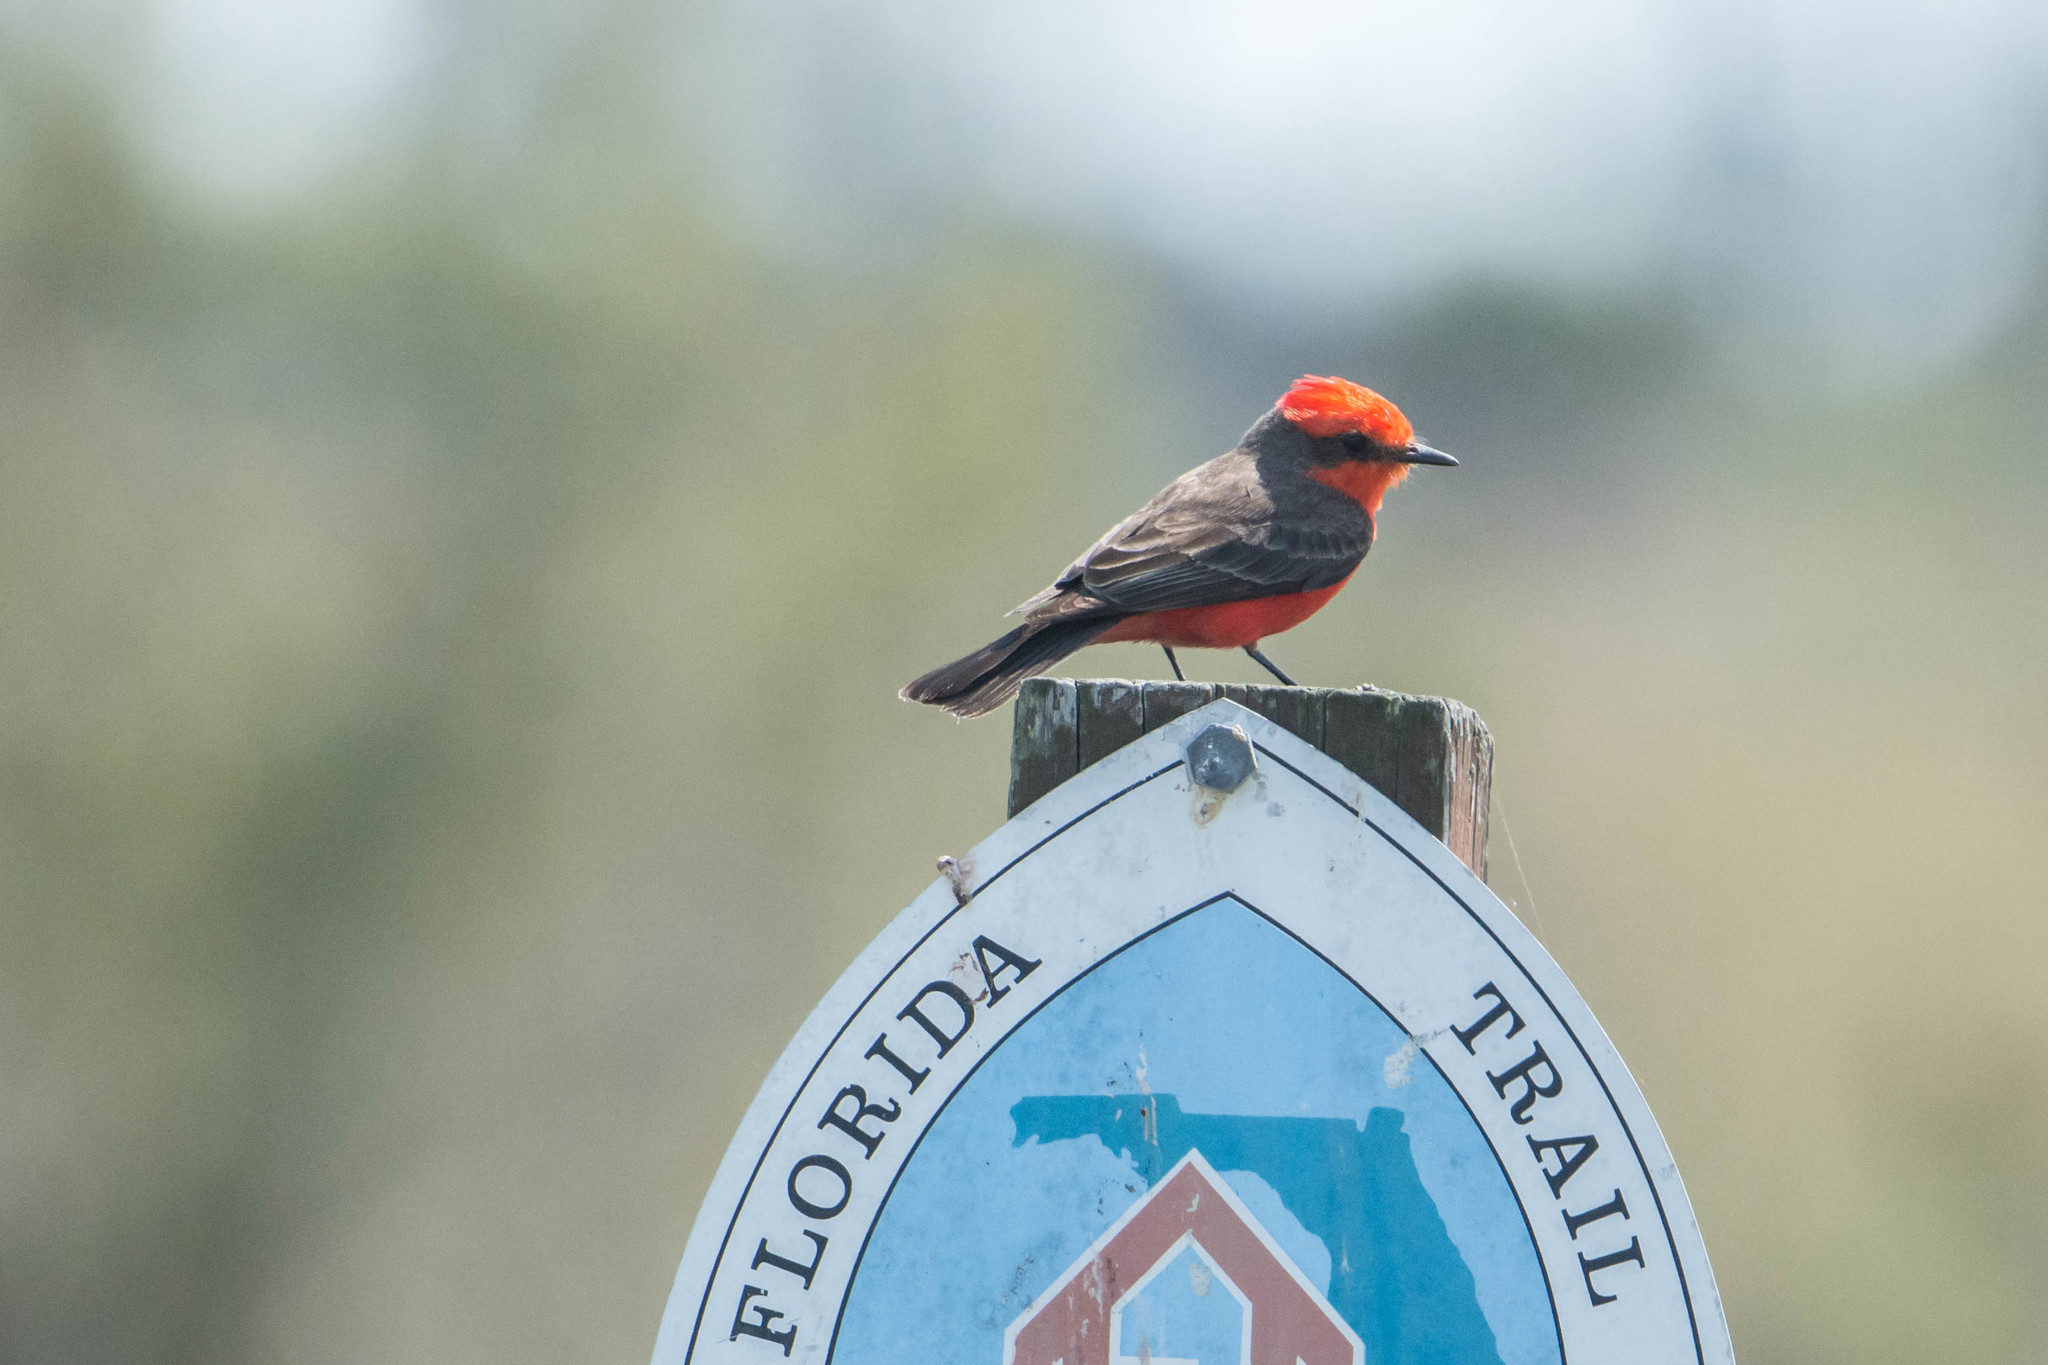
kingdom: Animalia
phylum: Chordata
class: Aves
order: Passeriformes
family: Tyrannidae
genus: Pyrocephalus
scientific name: Pyrocephalus rubinus
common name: Vermilion flycatcher
